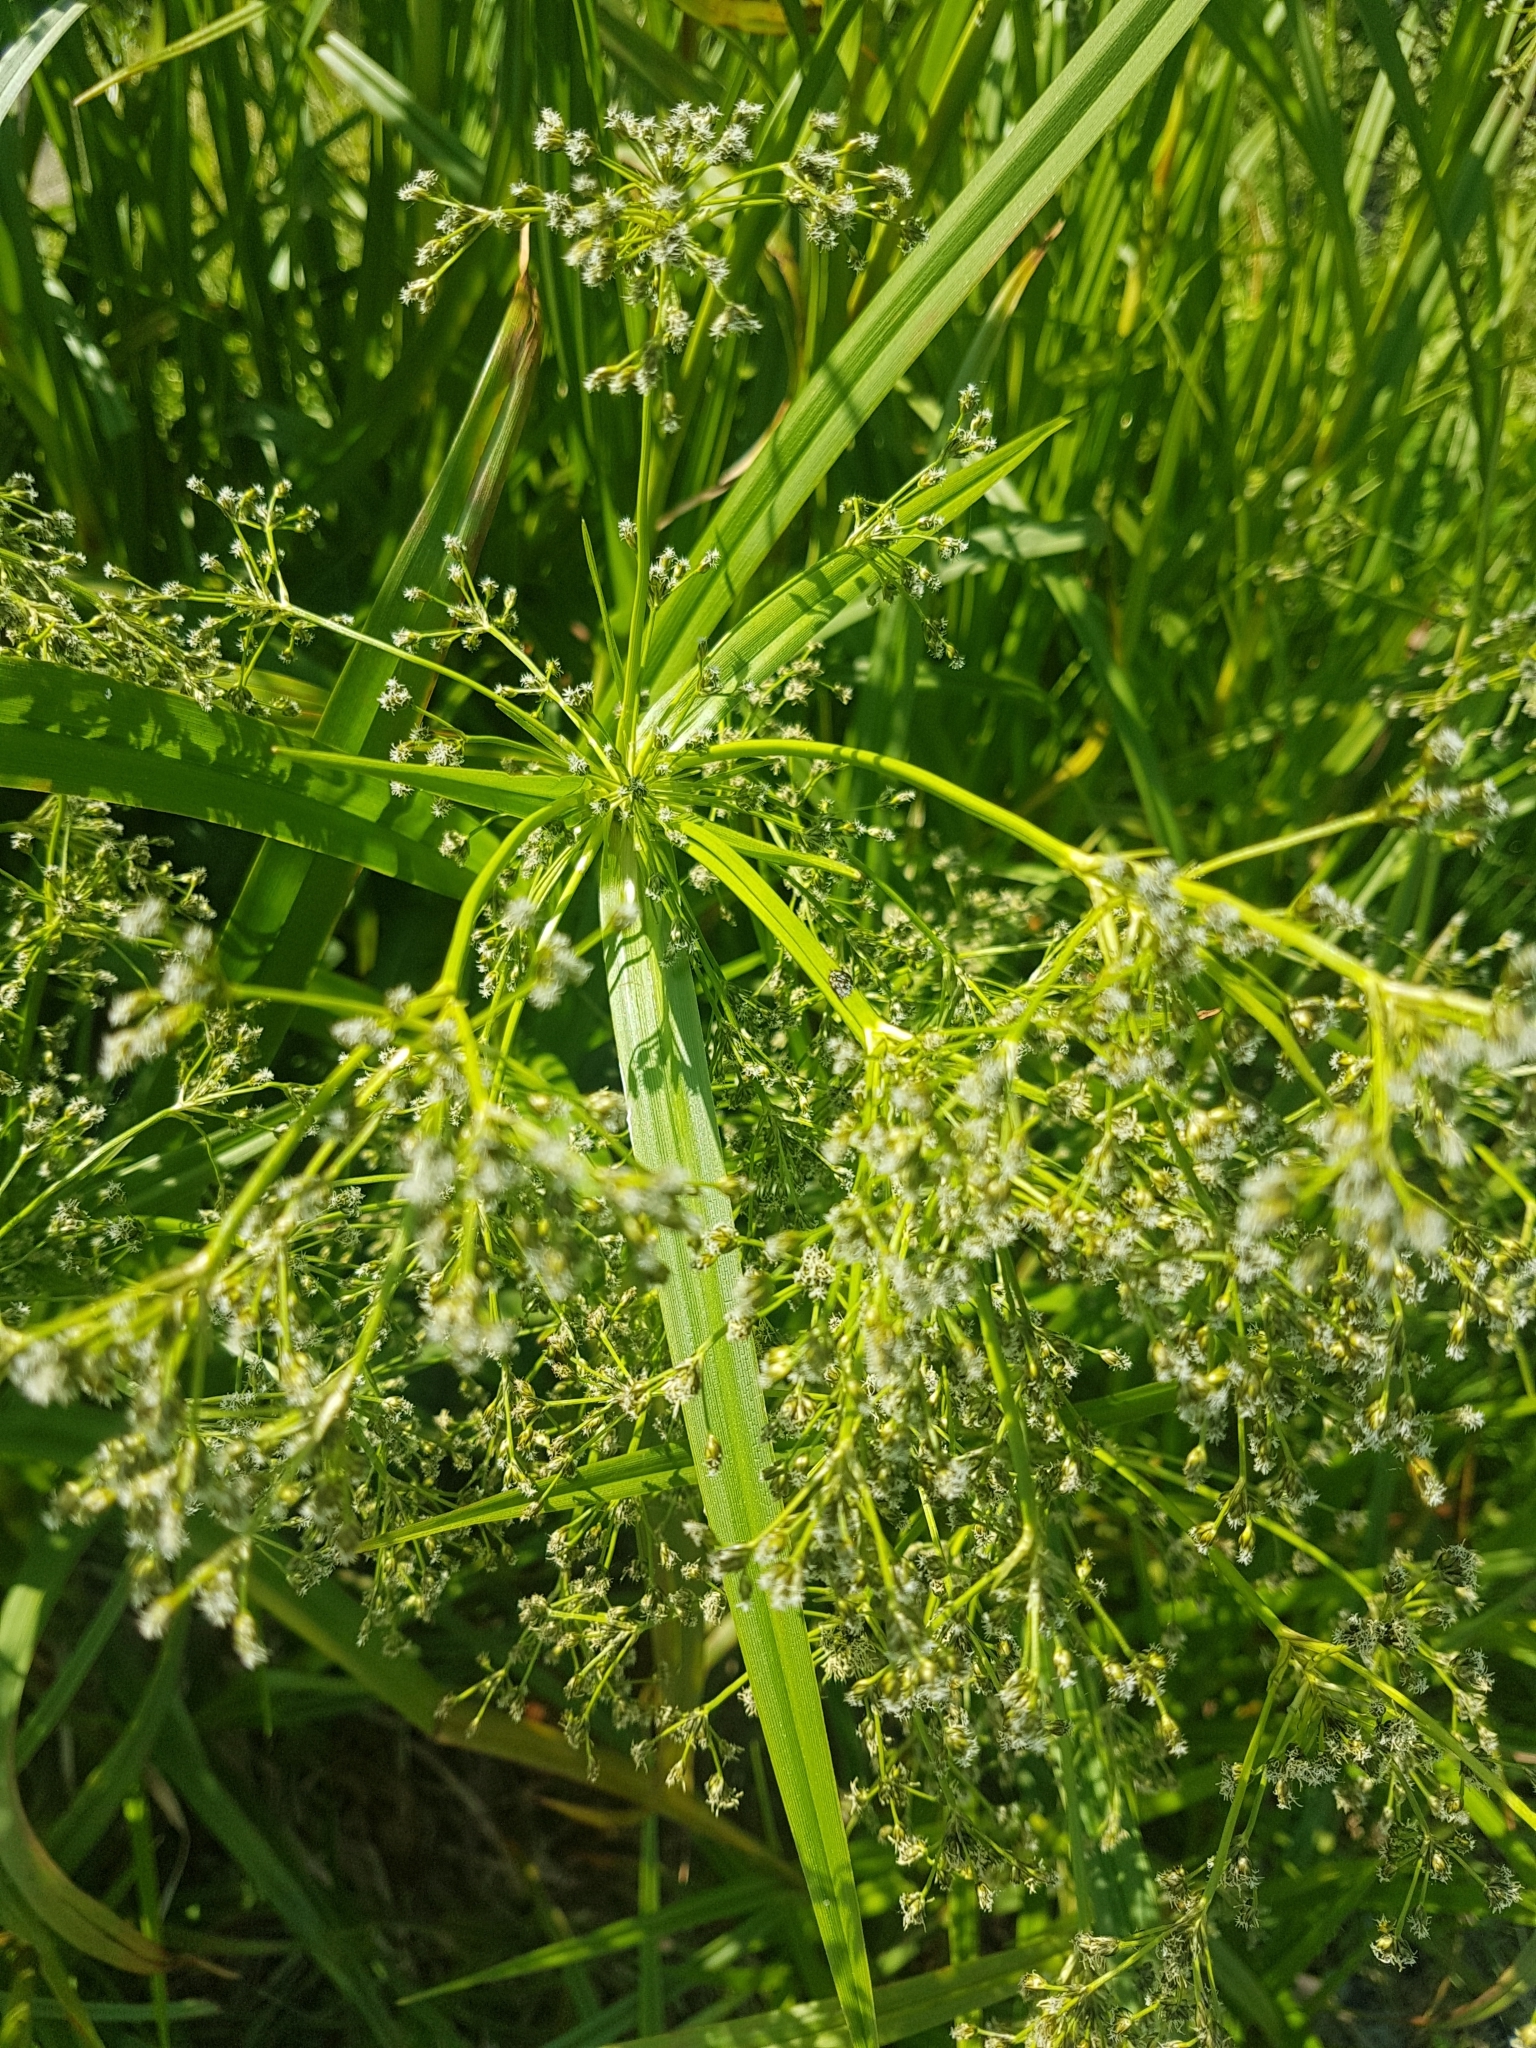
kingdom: Plantae
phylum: Tracheophyta
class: Liliopsida
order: Poales
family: Cyperaceae
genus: Scirpus
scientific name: Scirpus sylvaticus
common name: Wood club-rush
